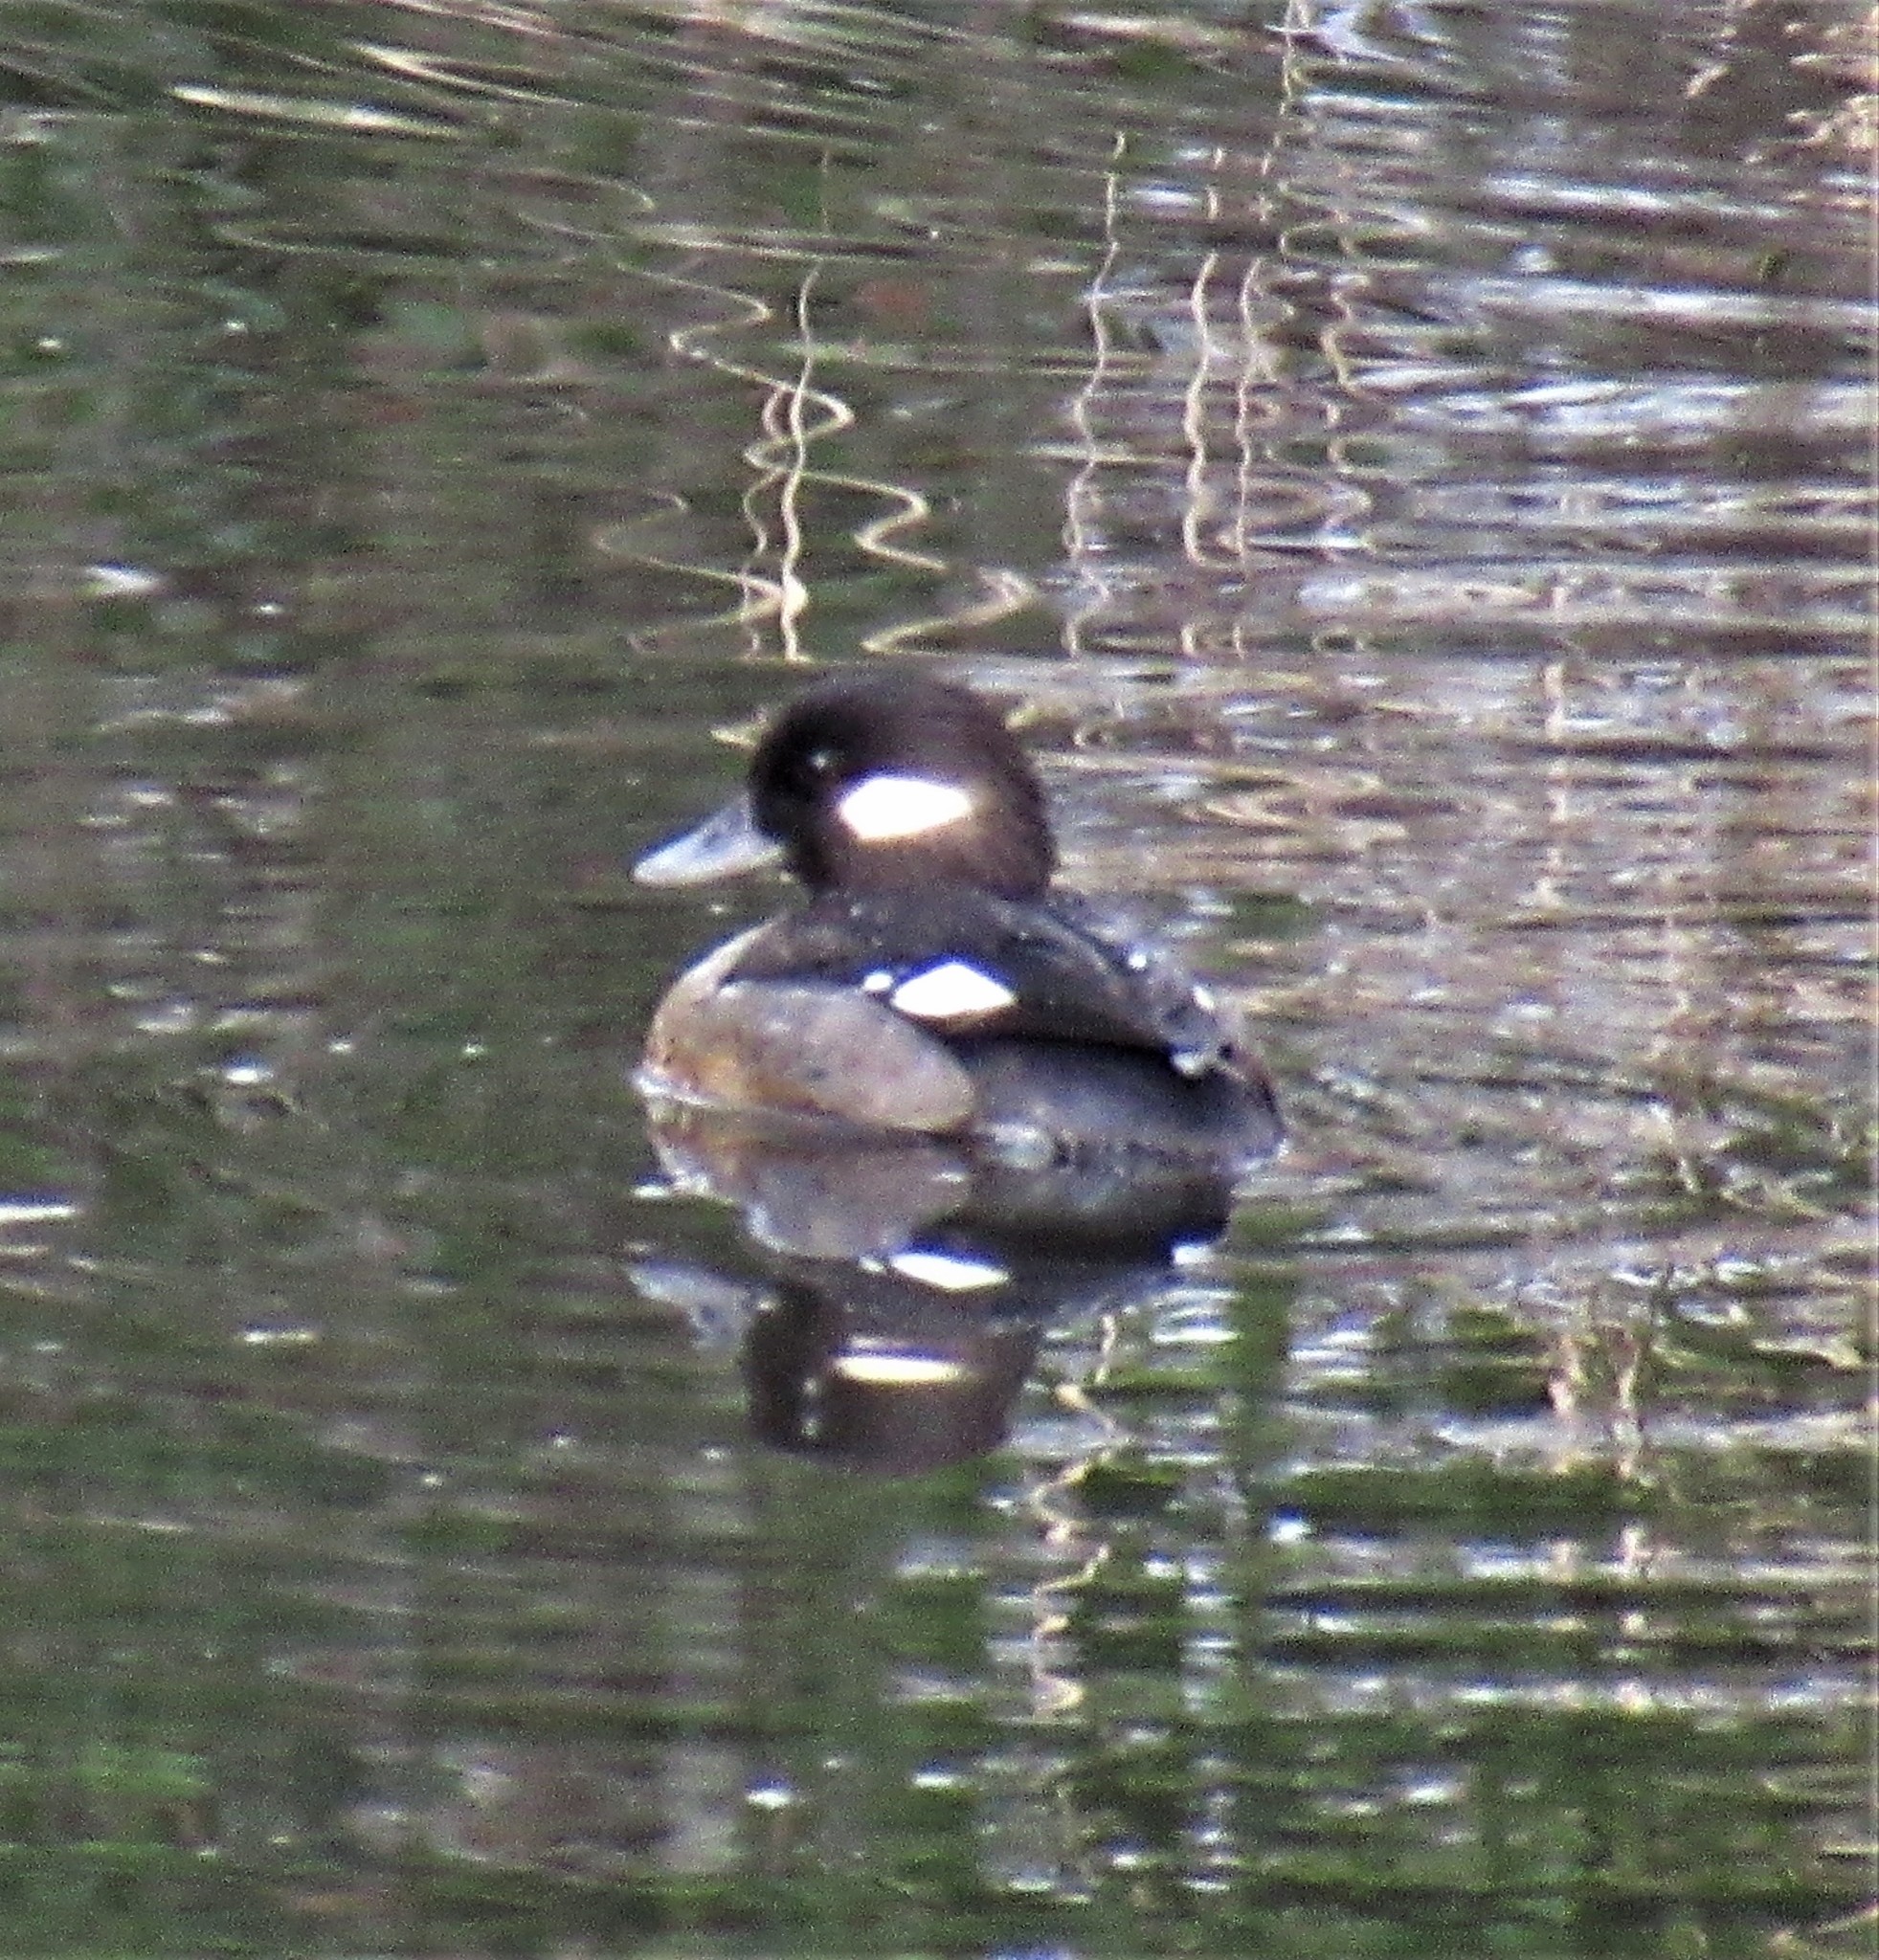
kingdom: Animalia
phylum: Chordata
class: Aves
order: Anseriformes
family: Anatidae
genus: Bucephala
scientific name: Bucephala albeola
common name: Bufflehead
